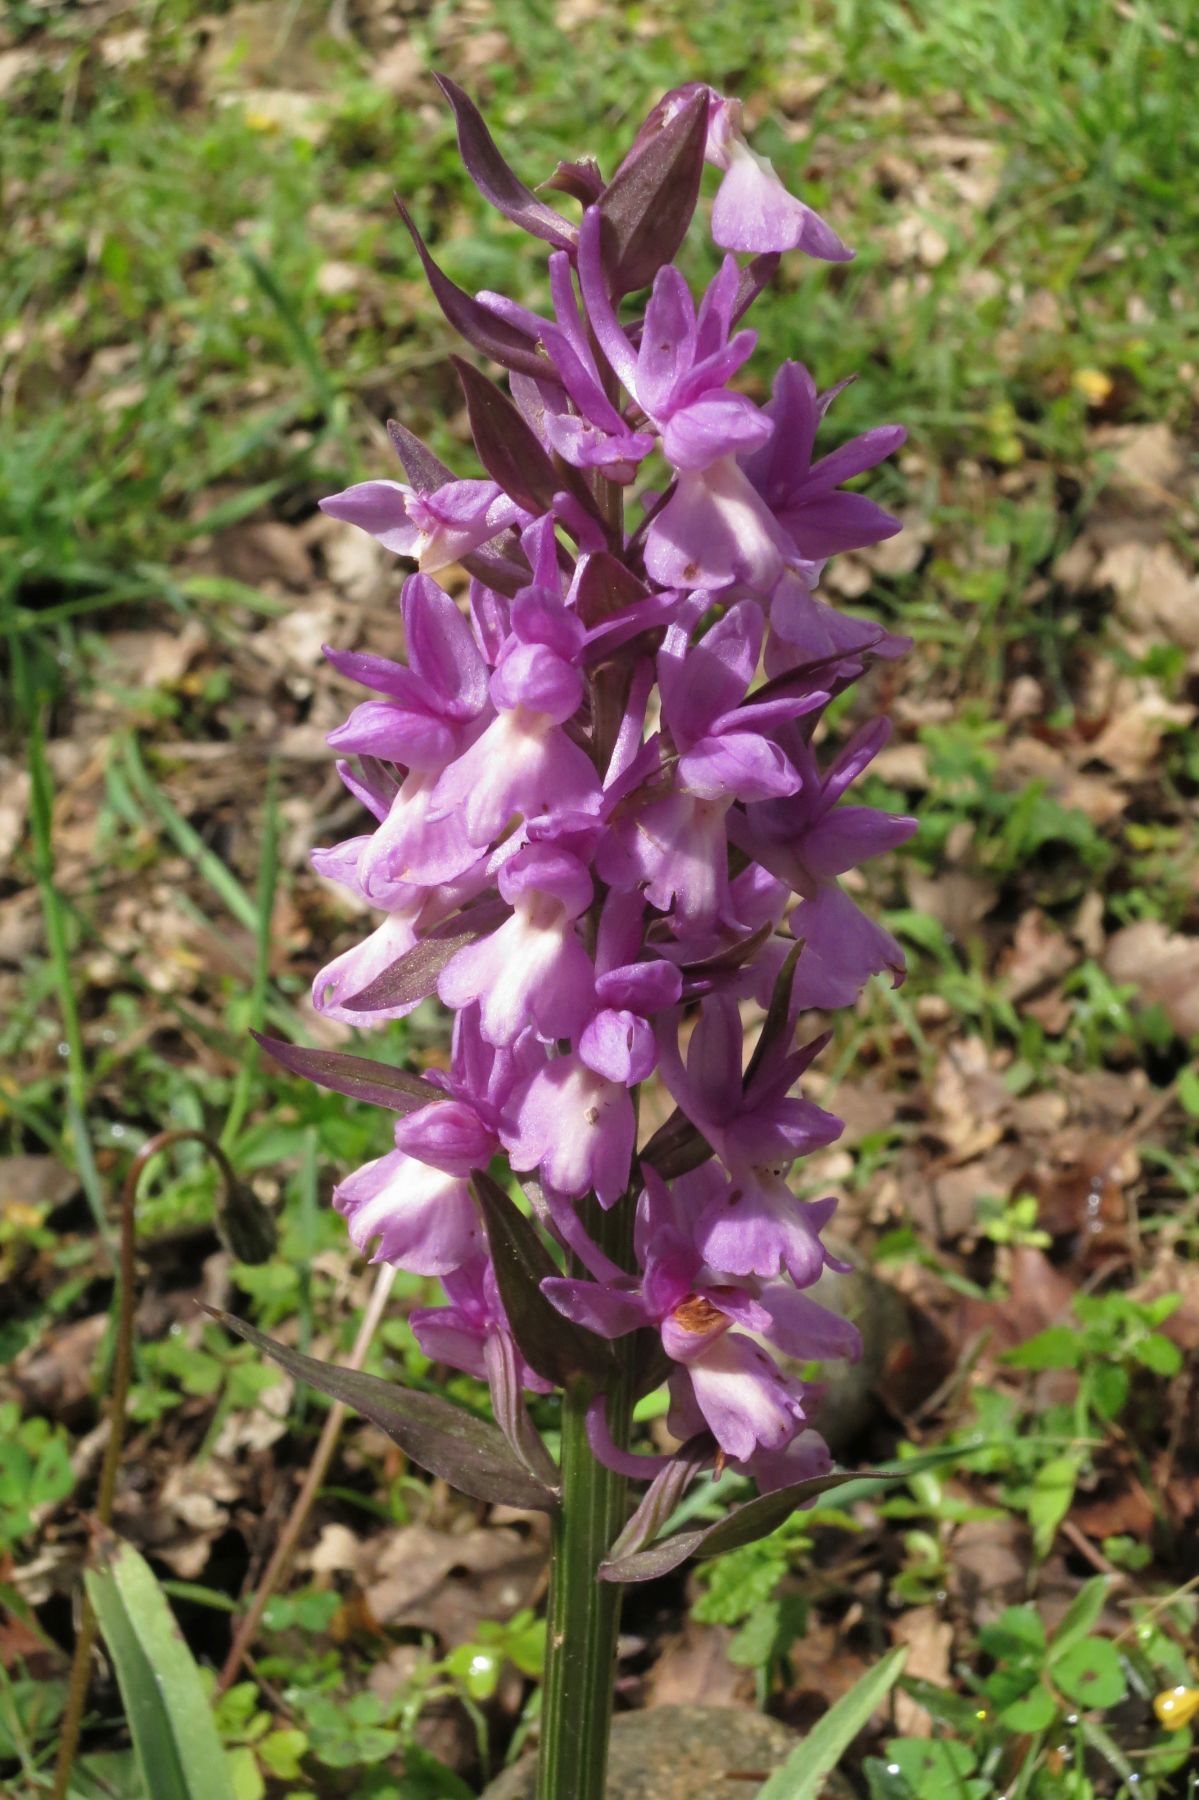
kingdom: Plantae
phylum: Tracheophyta
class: Liliopsida
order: Asparagales
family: Orchidaceae
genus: Dactylorhiza
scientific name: Dactylorhiza romana
